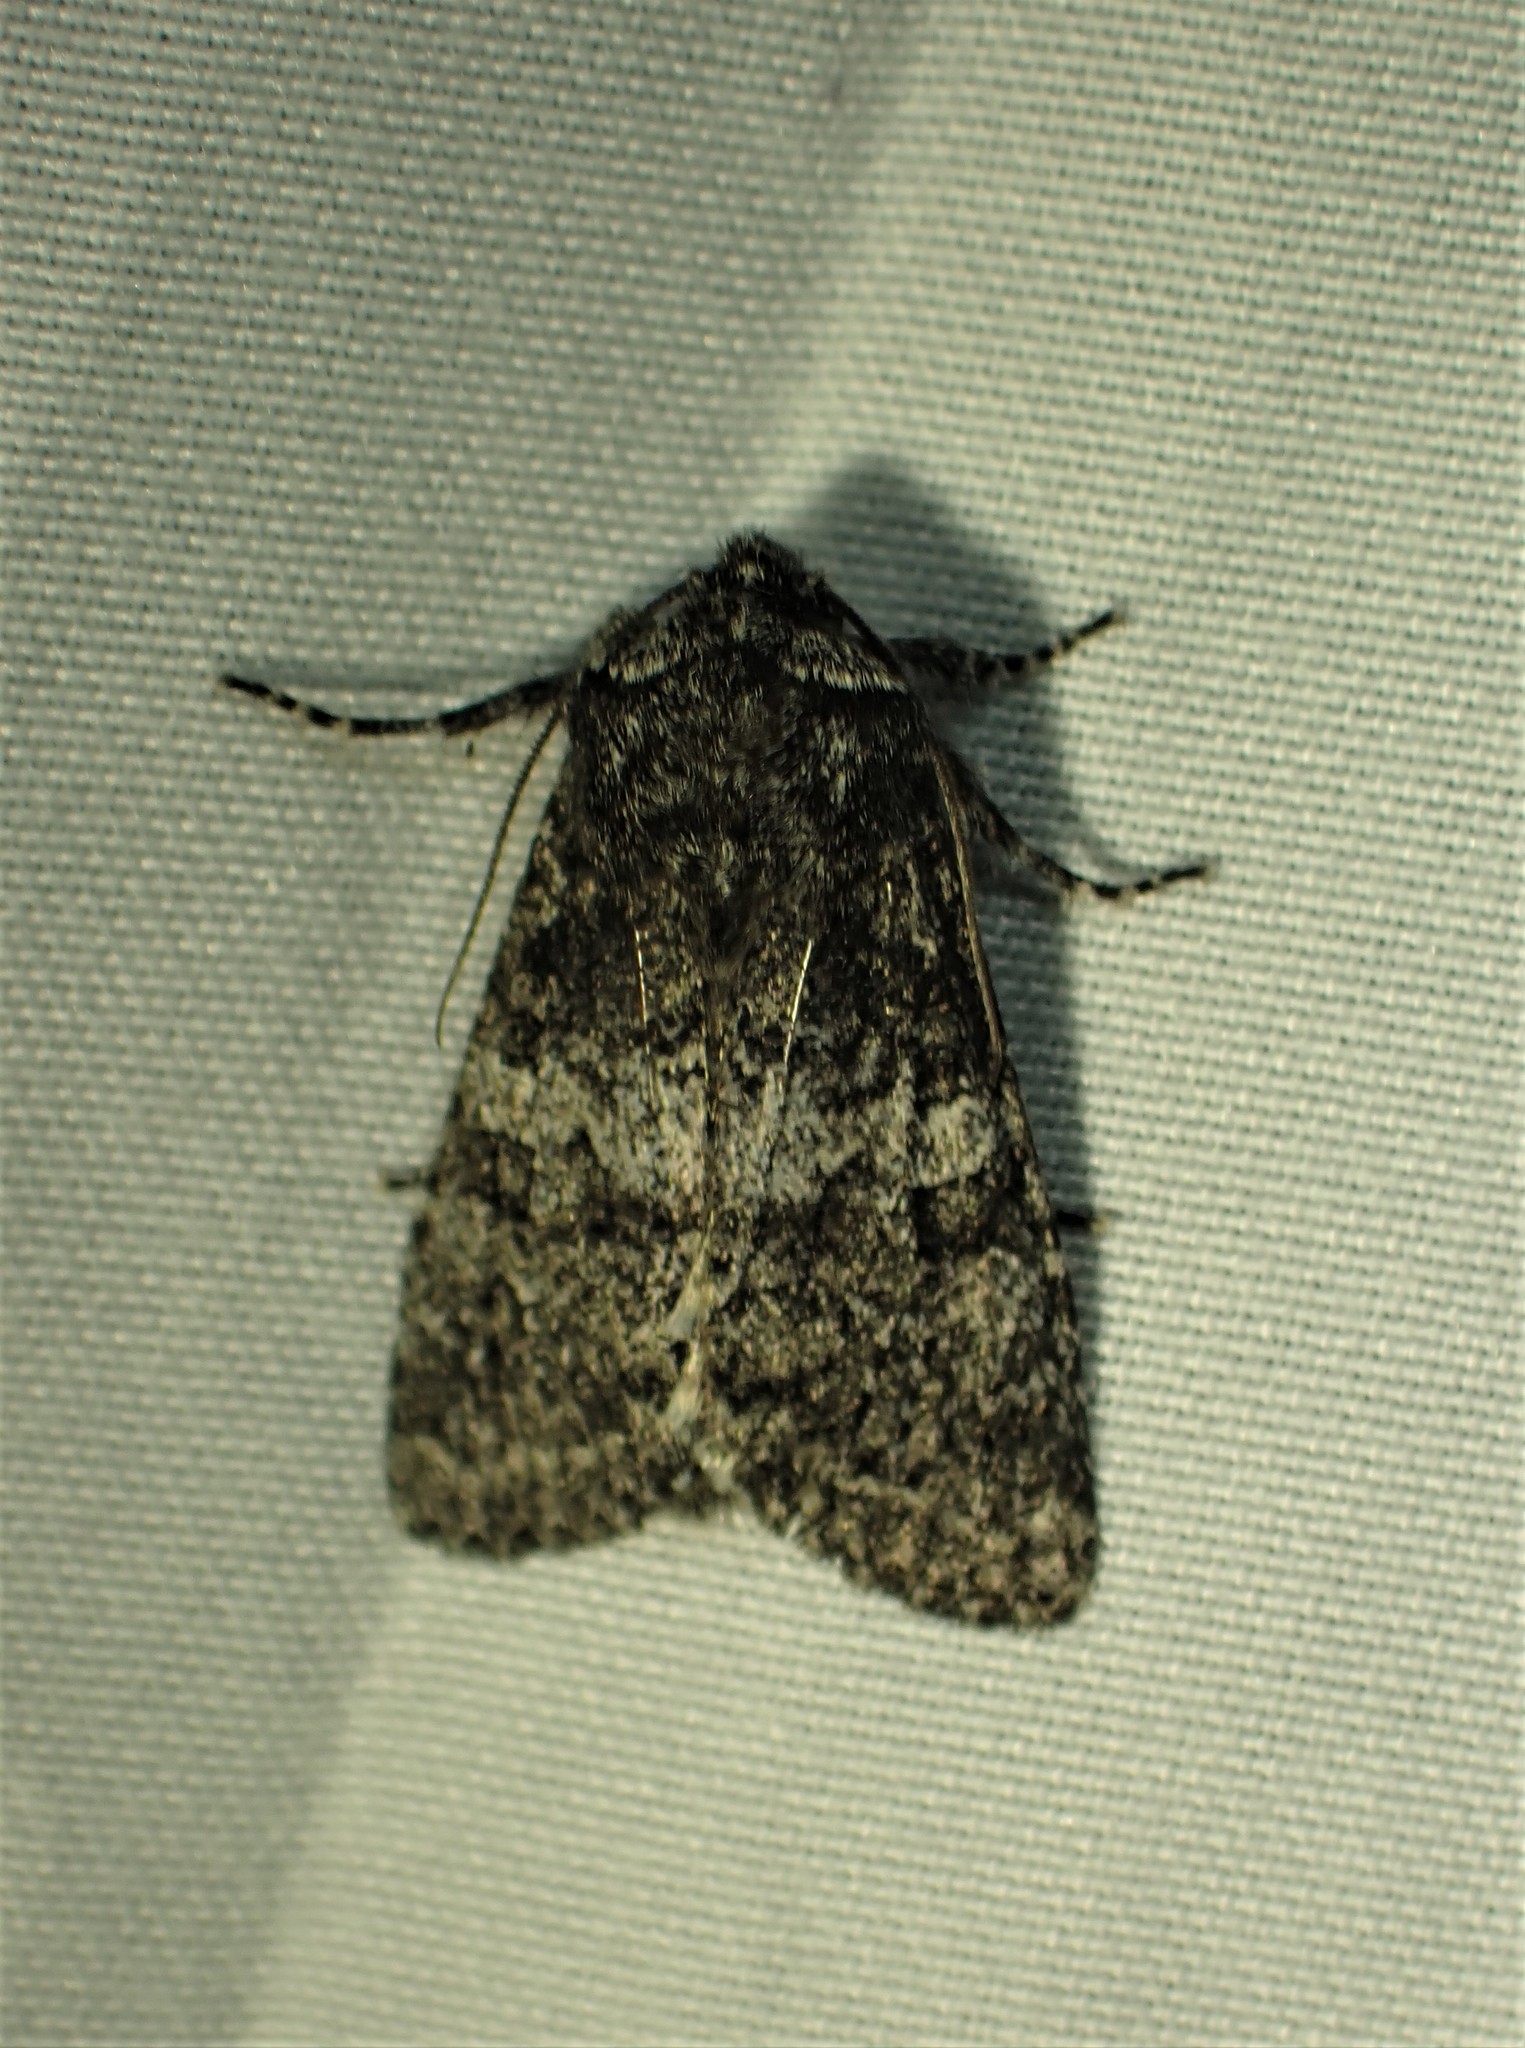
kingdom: Animalia
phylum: Arthropoda
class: Insecta
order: Lepidoptera
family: Noctuidae
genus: Egira
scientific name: Egira dolosa
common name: Lined black aspen cat.
